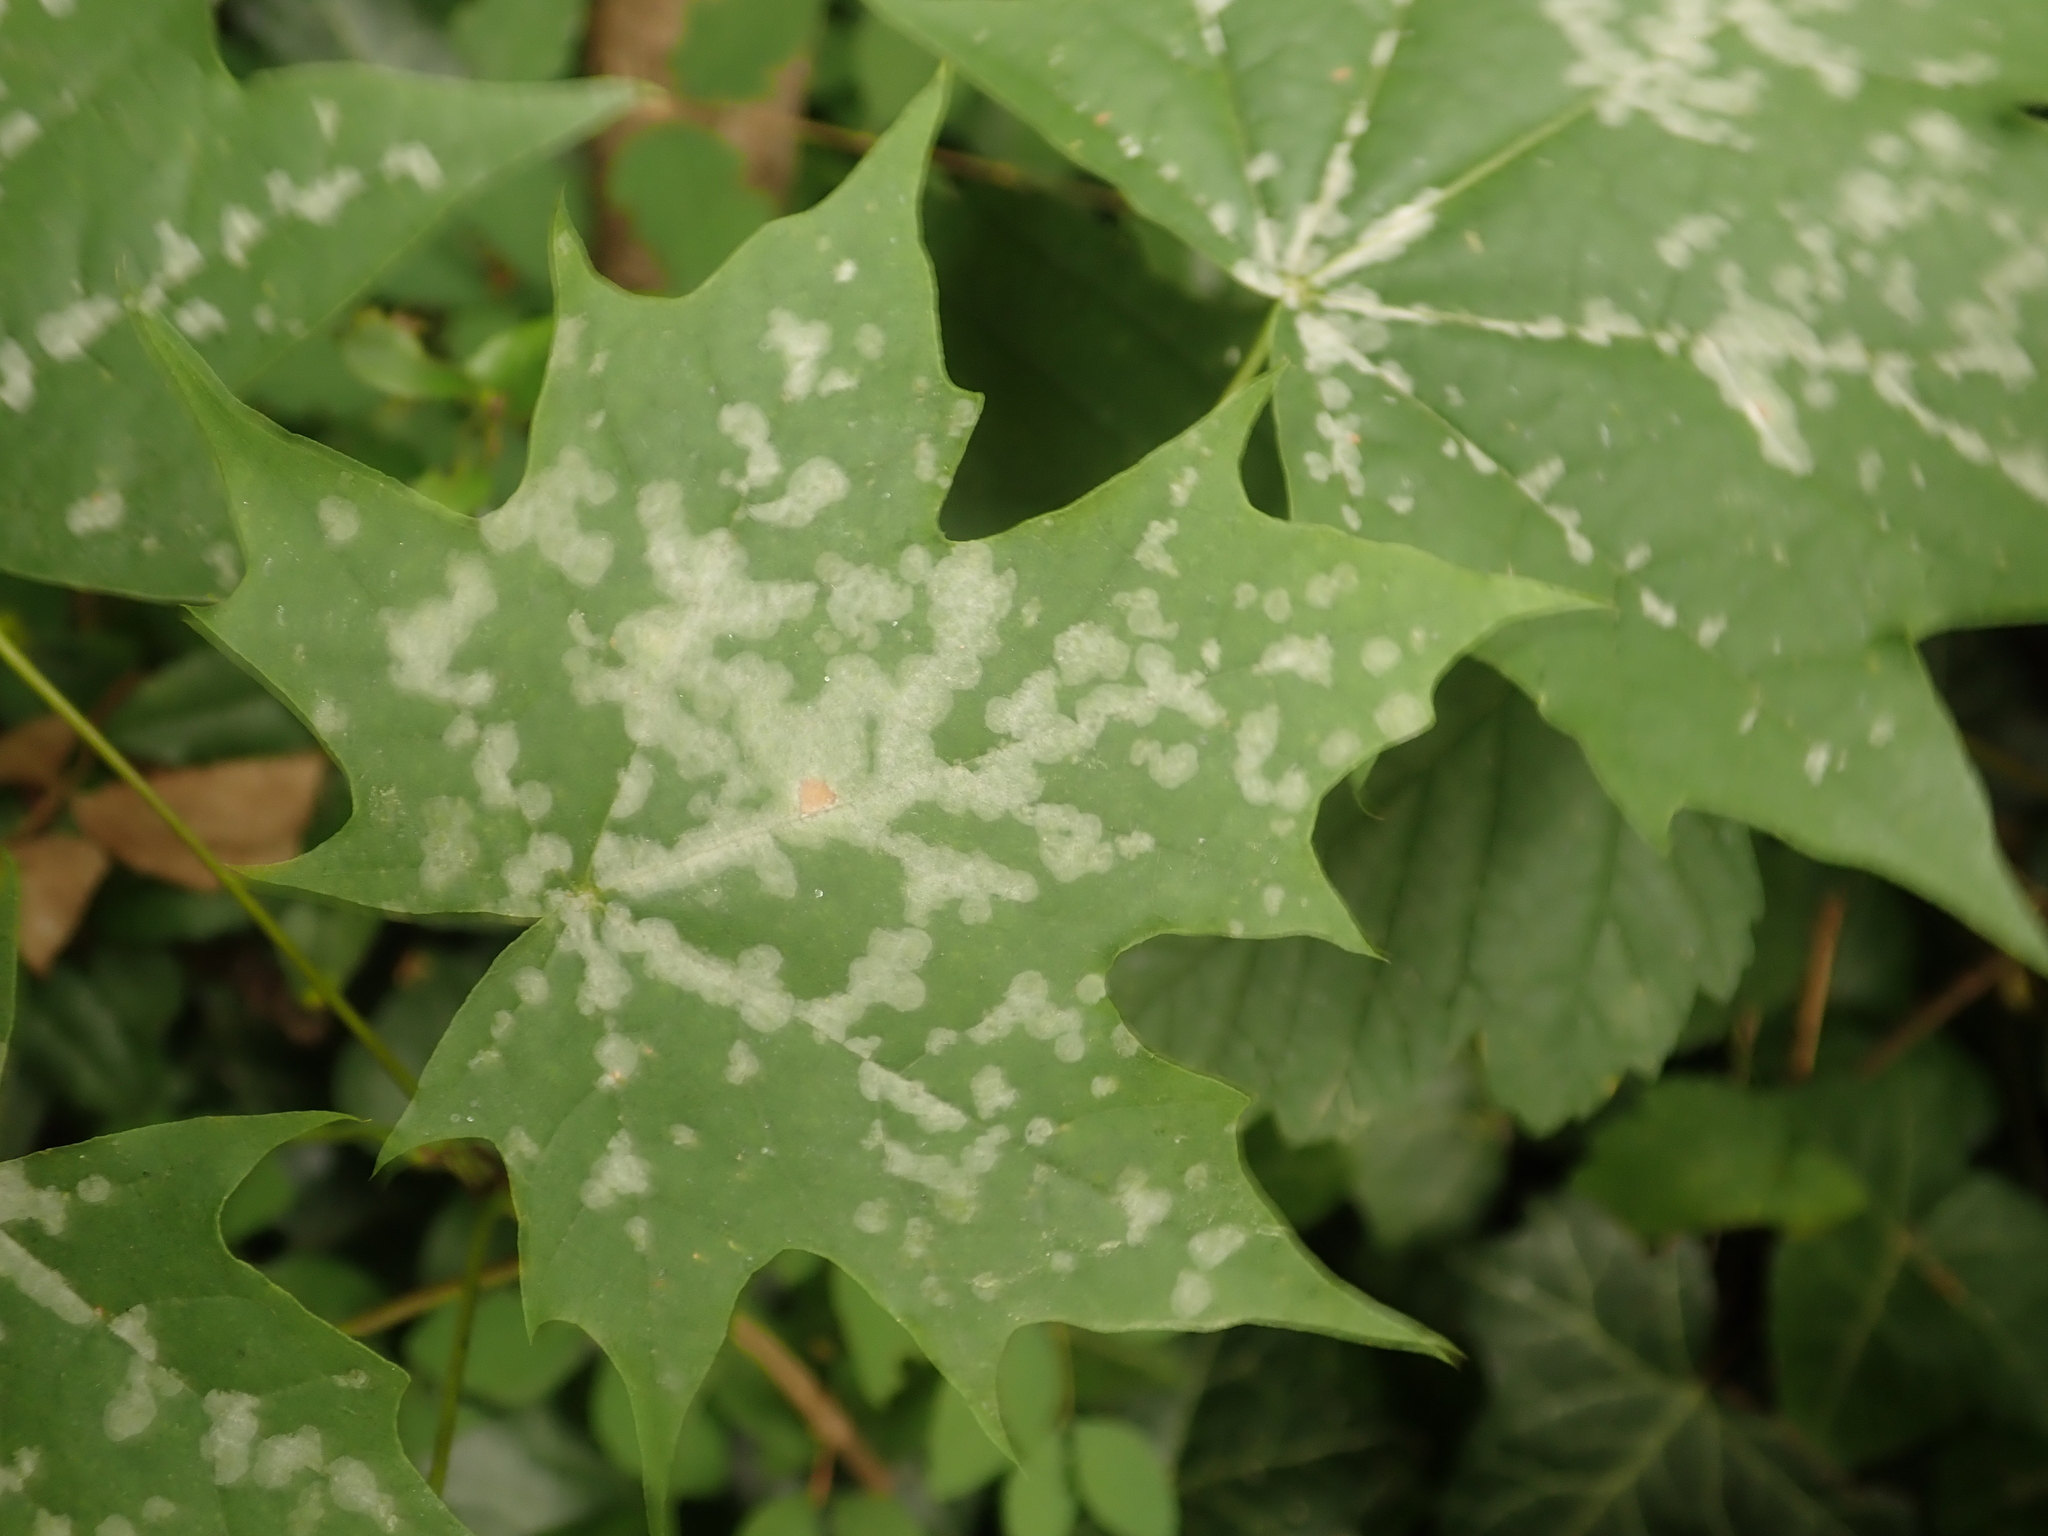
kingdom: Plantae
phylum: Tracheophyta
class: Magnoliopsida
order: Sapindales
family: Sapindaceae
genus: Acer
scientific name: Acer platanoides
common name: Norway maple
